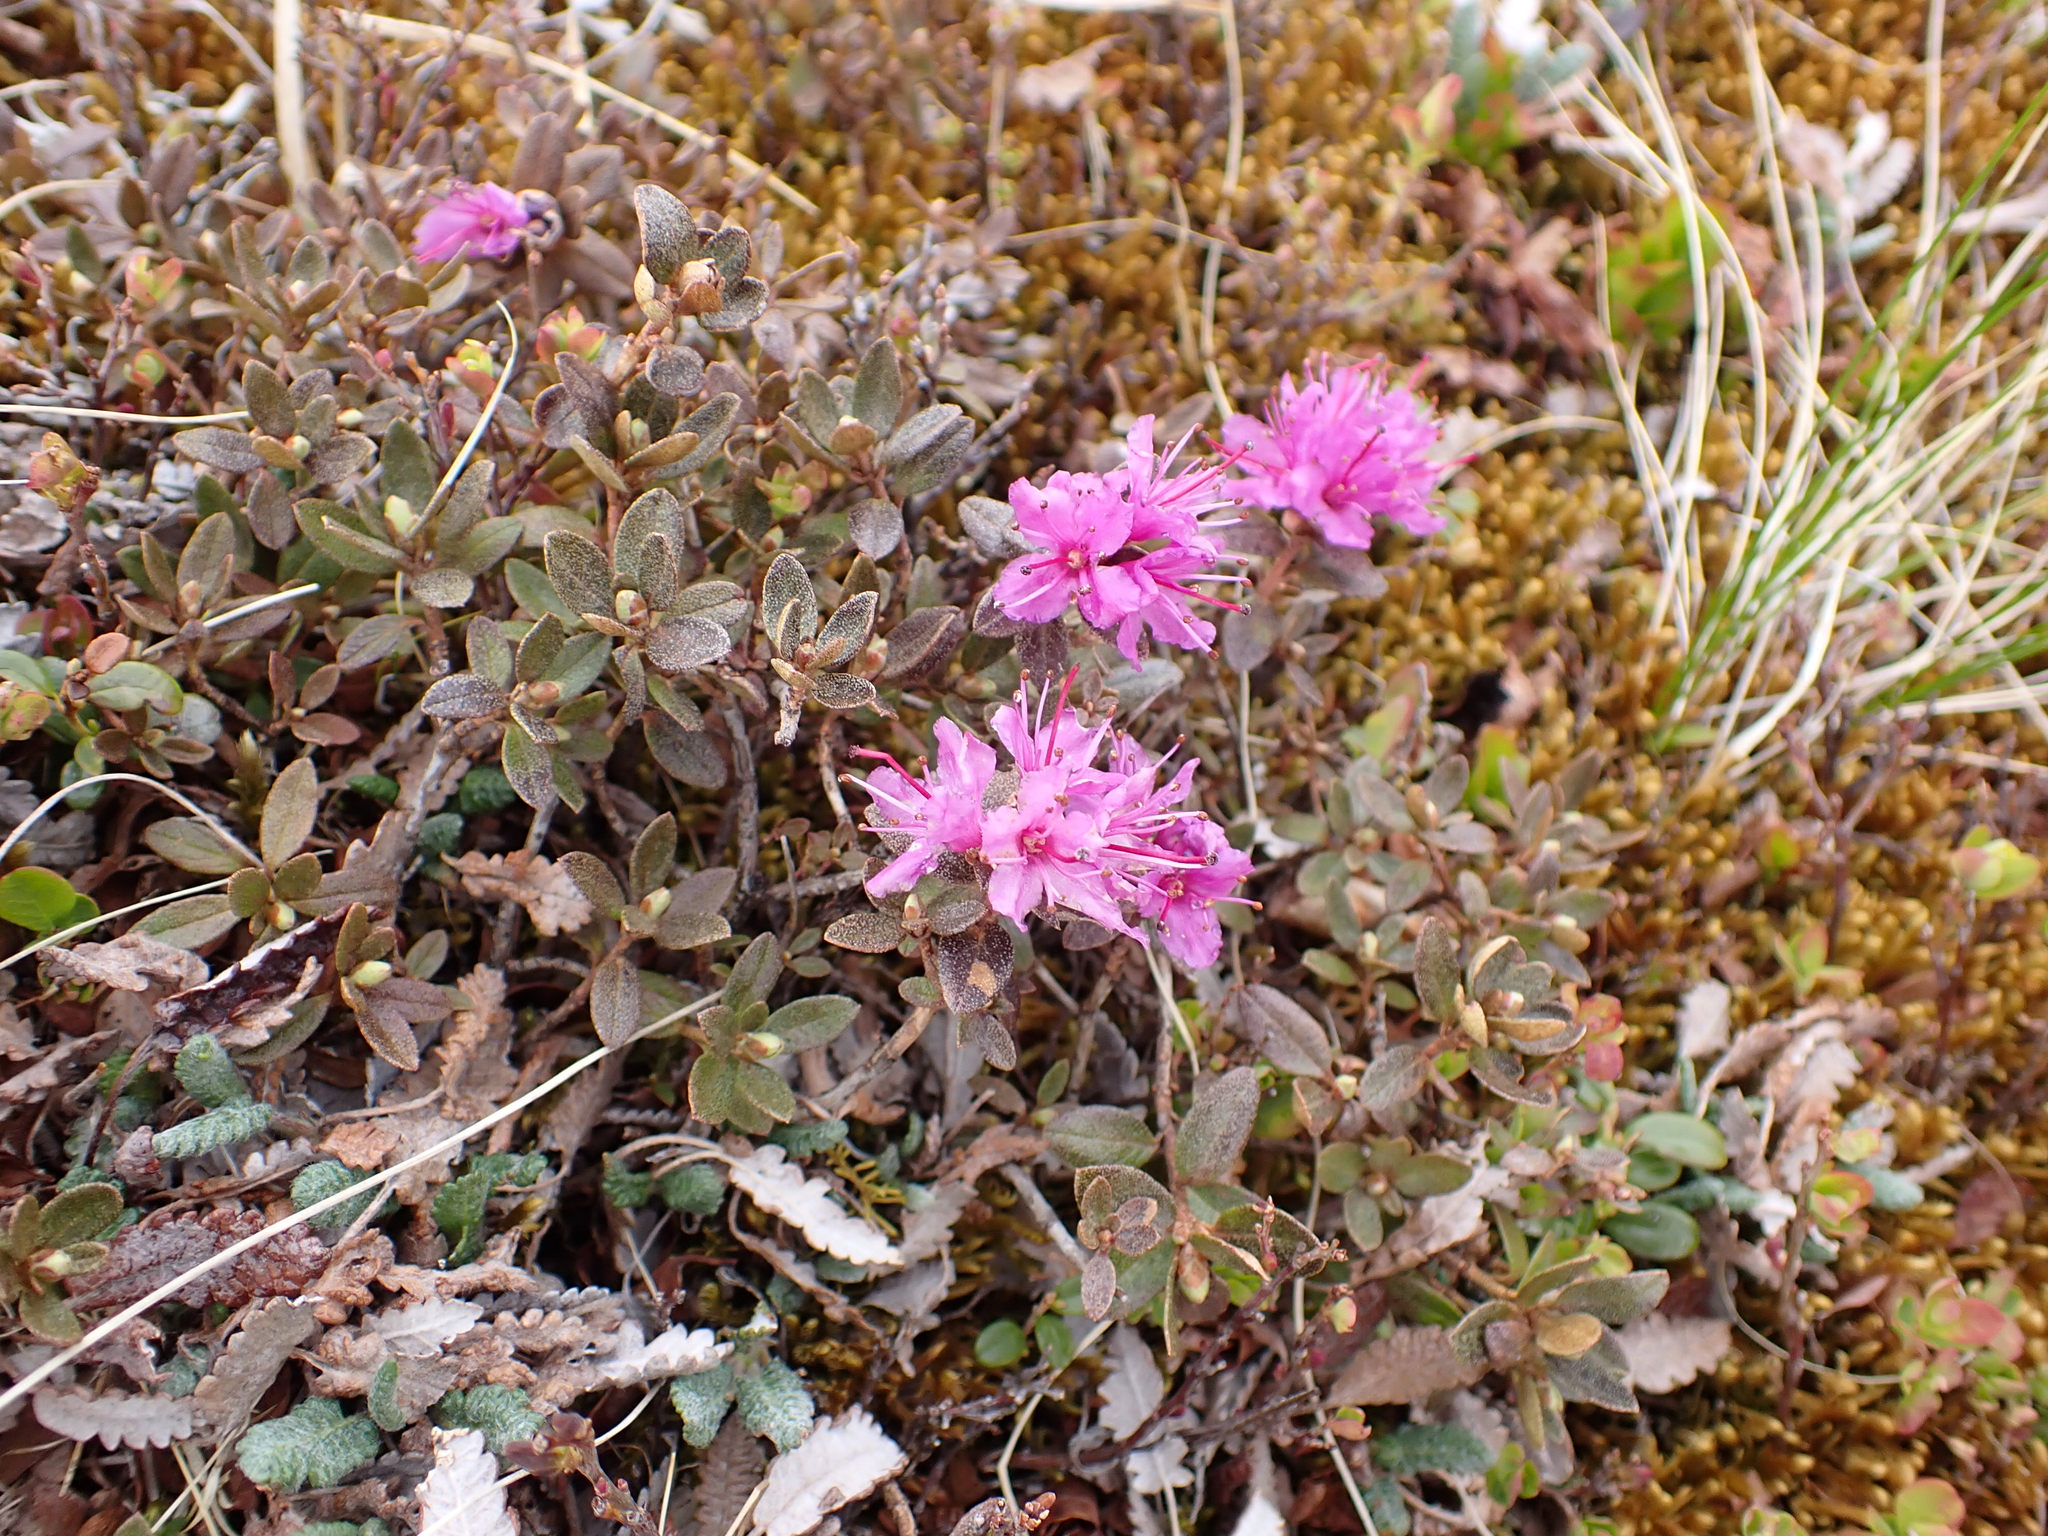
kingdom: Plantae
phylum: Tracheophyta
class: Magnoliopsida
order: Ericales
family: Ericaceae
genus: Rhododendron
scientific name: Rhododendron lapponicum
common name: Lapland rhododendron
